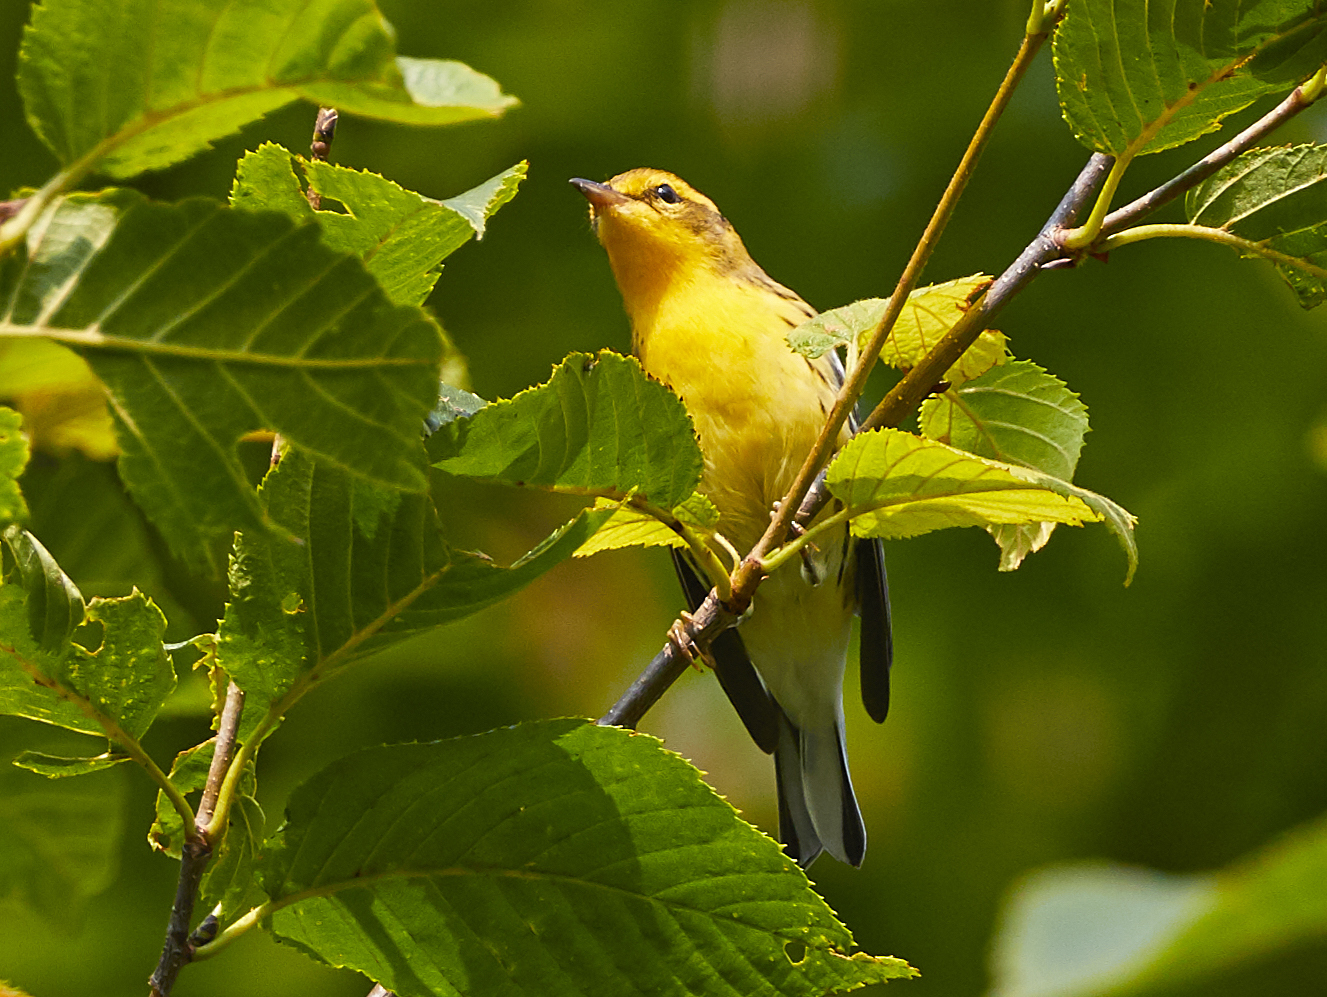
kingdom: Animalia
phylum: Chordata
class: Aves
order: Passeriformes
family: Parulidae
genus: Setophaga
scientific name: Setophaga fusca
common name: Blackburnian warbler
